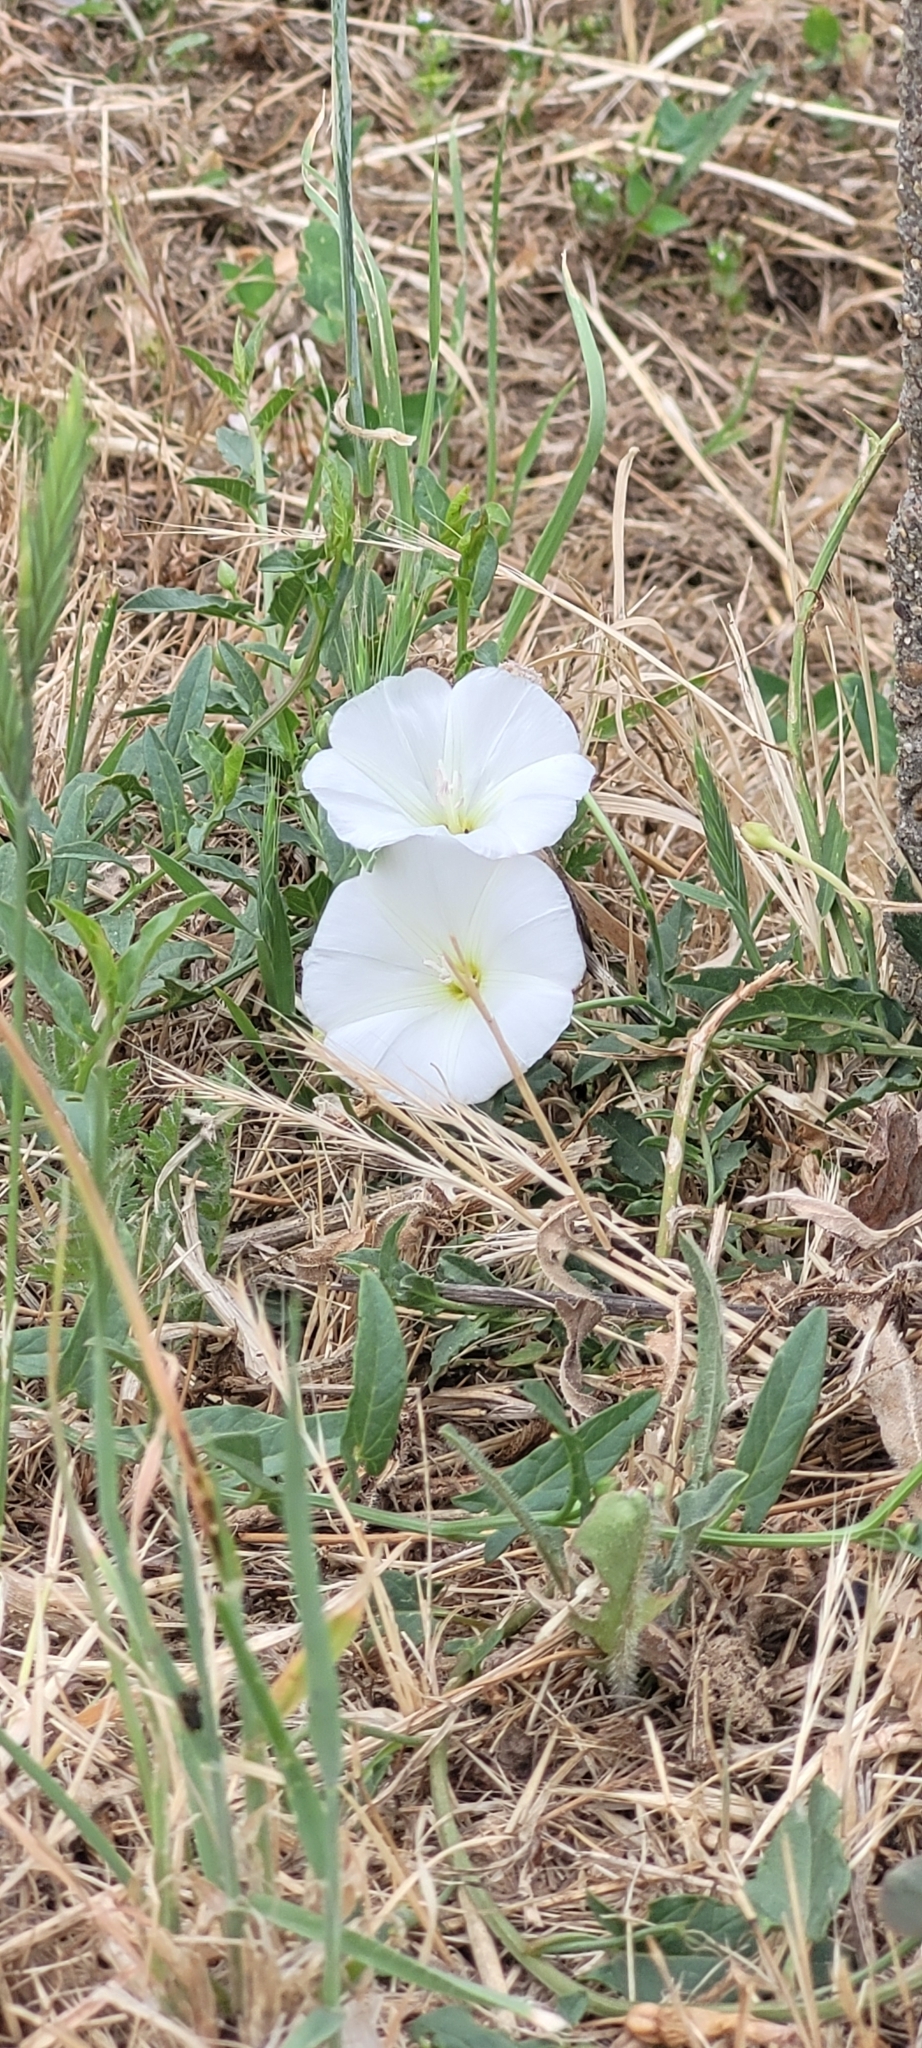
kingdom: Plantae
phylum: Tracheophyta
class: Magnoliopsida
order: Solanales
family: Convolvulaceae
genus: Convolvulus
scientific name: Convolvulus arvensis
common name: Field bindweed
